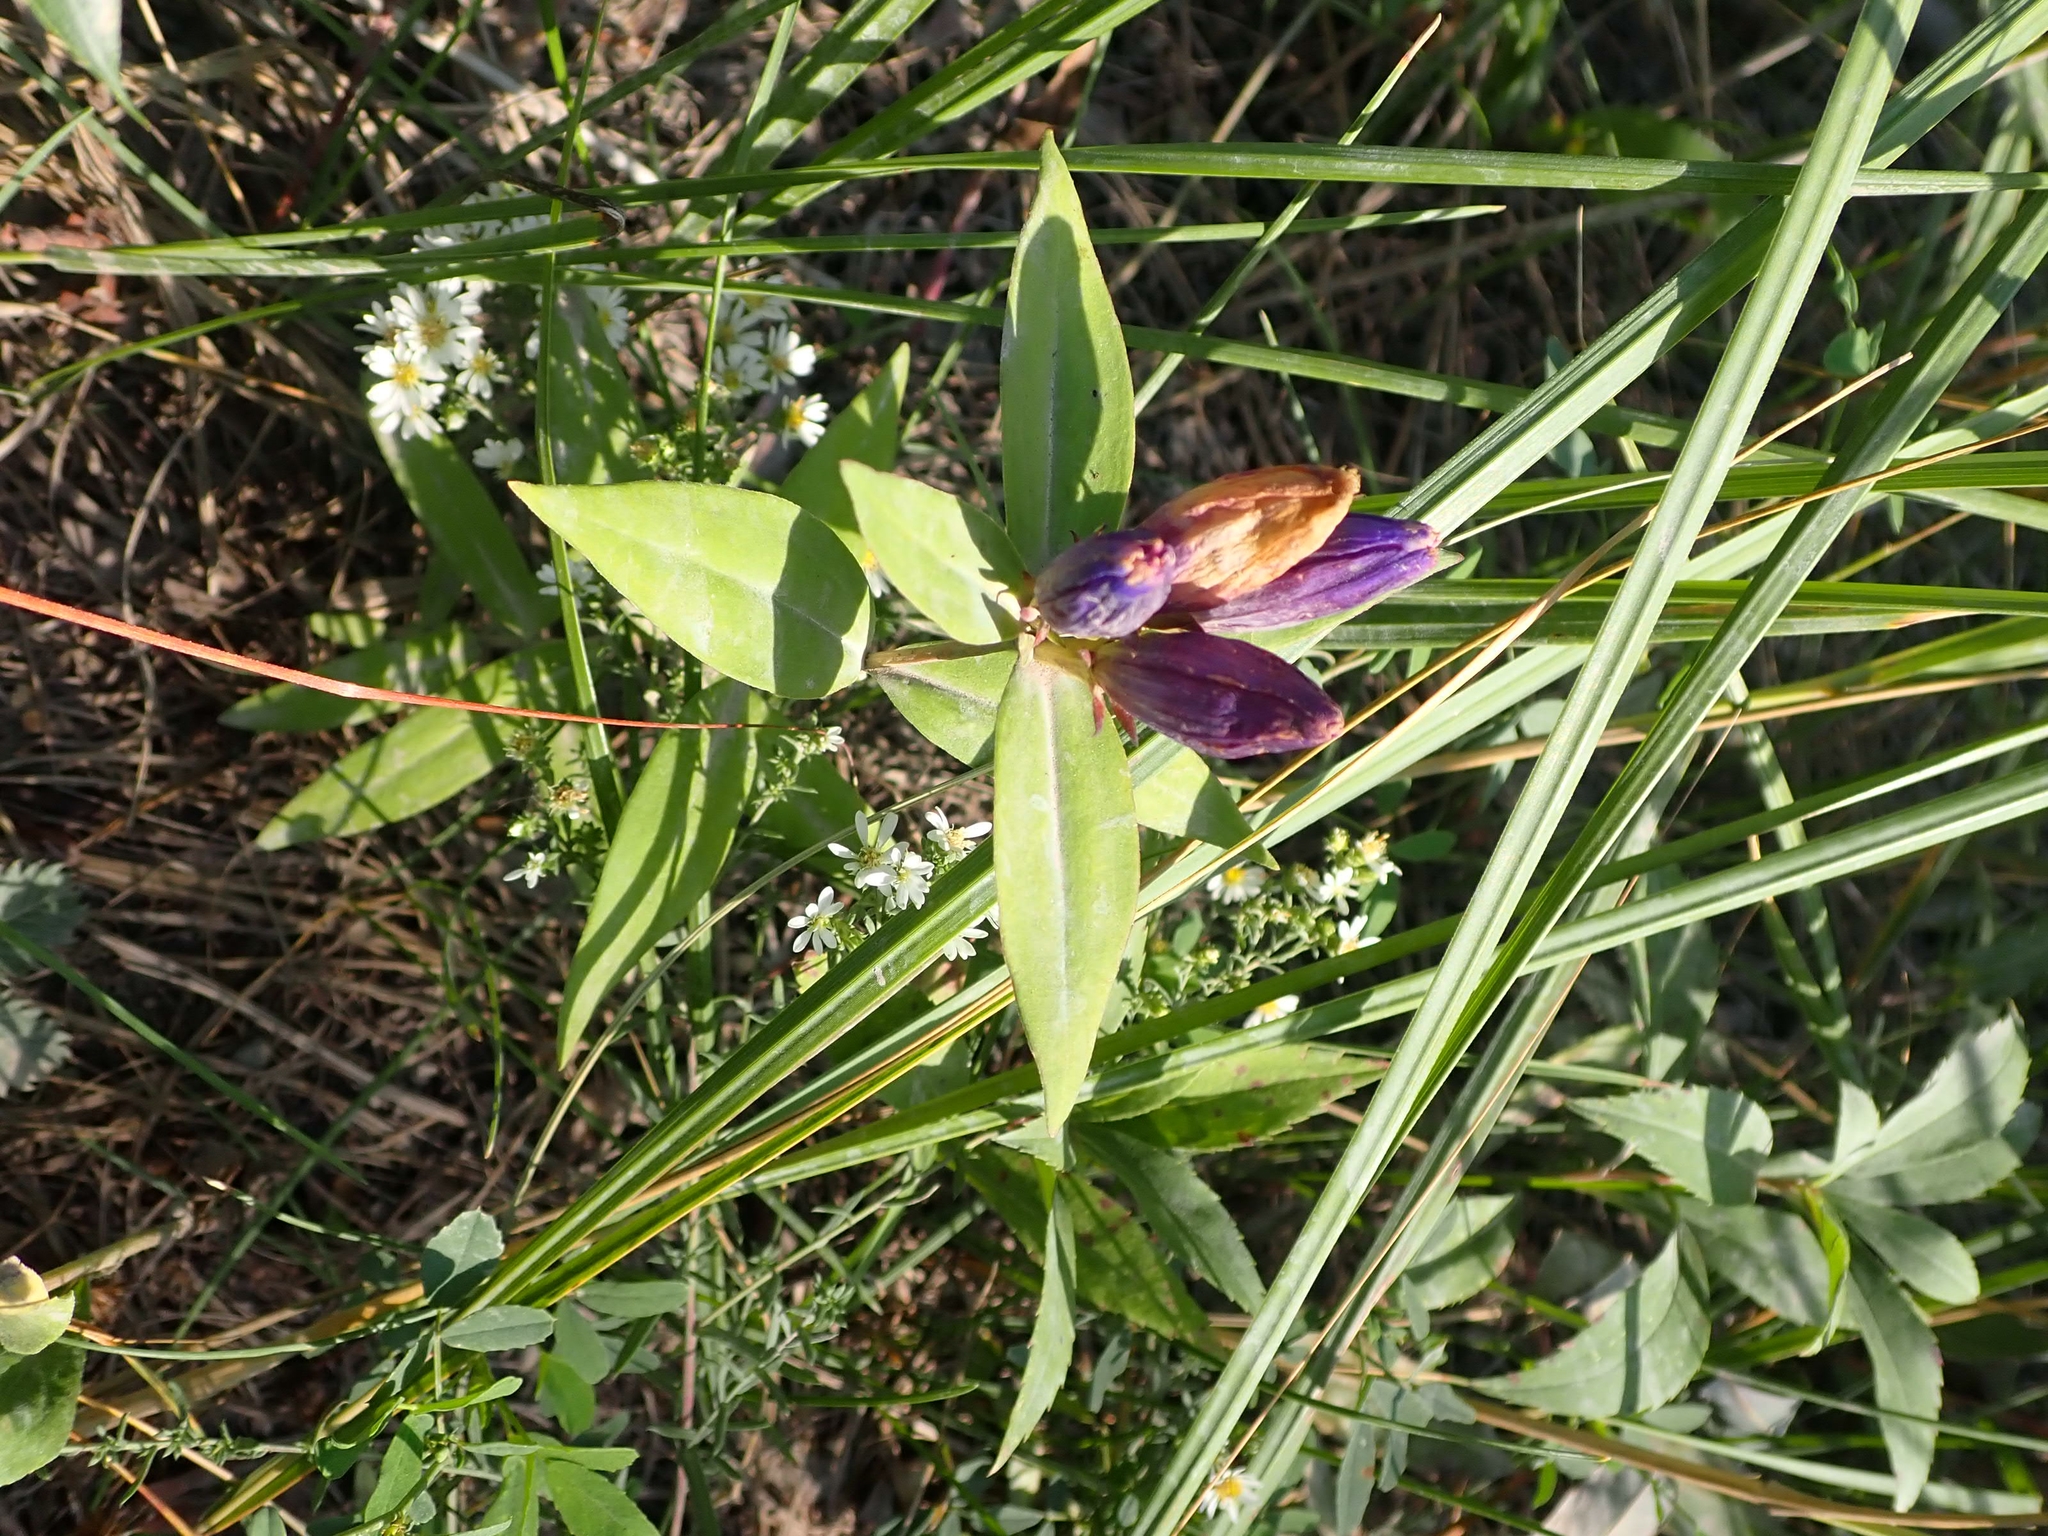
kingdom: Plantae
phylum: Tracheophyta
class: Magnoliopsida
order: Gentianales
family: Gentianaceae
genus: Gentiana
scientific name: Gentiana andrewsii
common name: Bottle gentian
